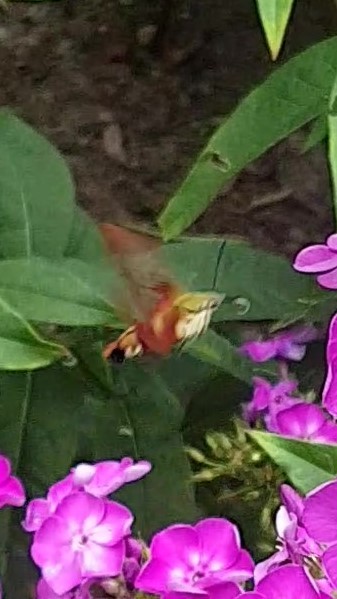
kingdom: Animalia
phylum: Arthropoda
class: Insecta
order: Lepidoptera
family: Sphingidae
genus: Hemaris
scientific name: Hemaris thysbe
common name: Common clear-wing
